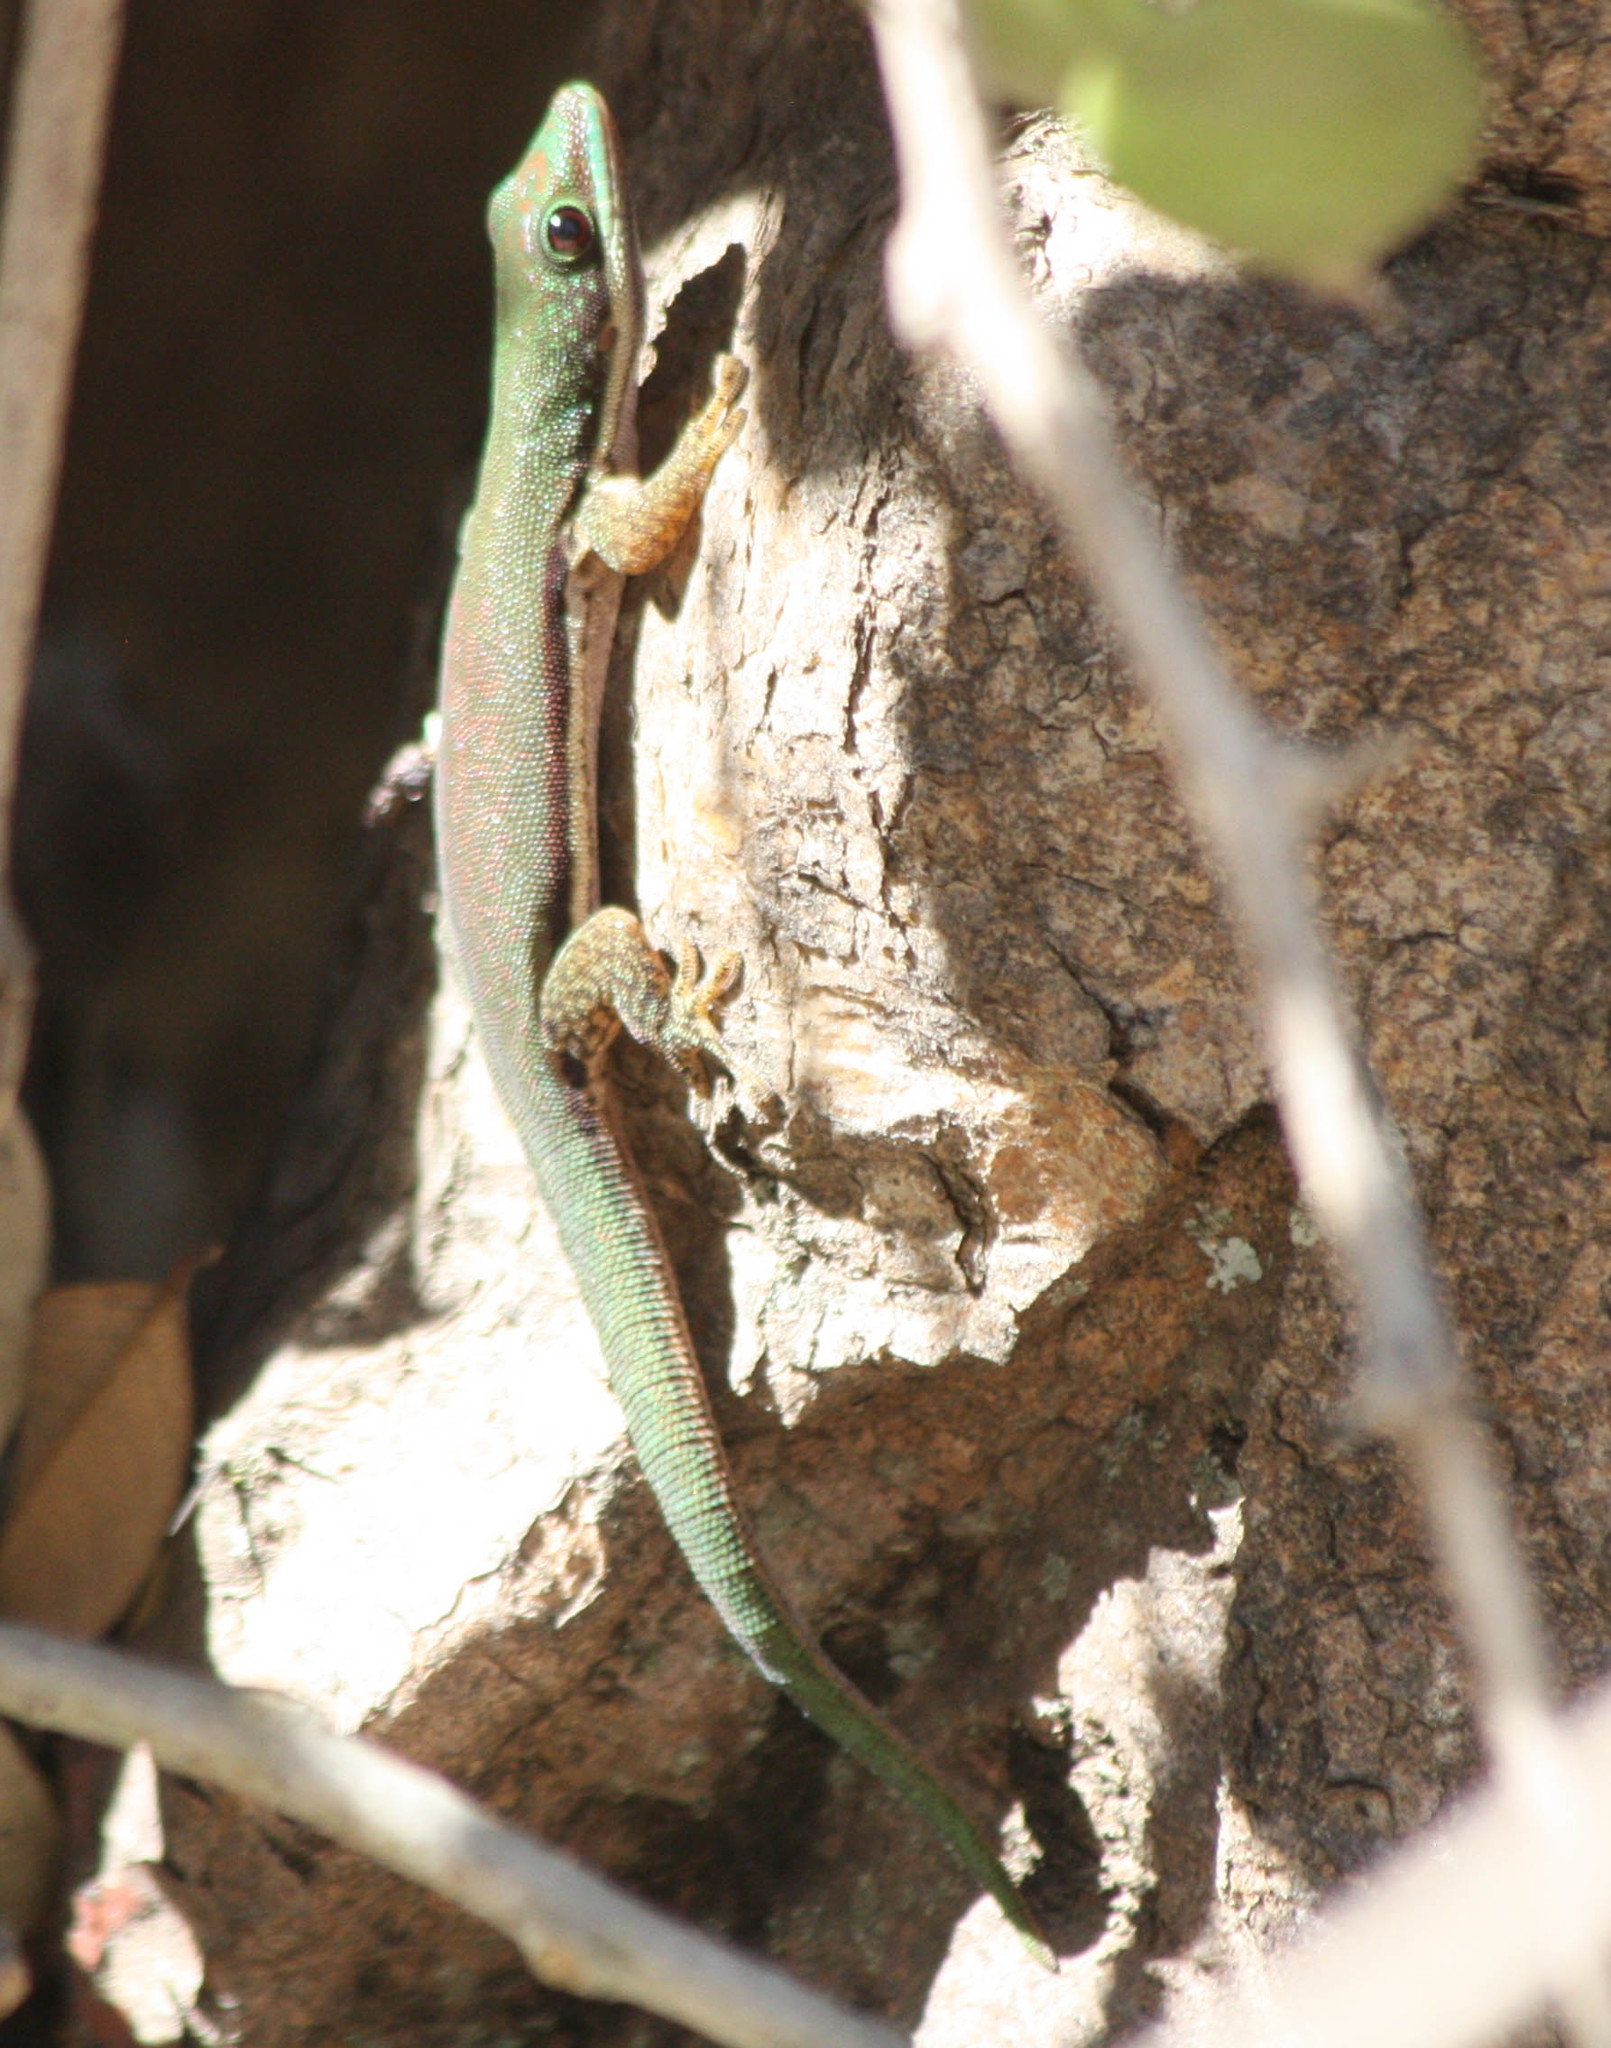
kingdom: Animalia
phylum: Chordata
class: Squamata
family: Gekkonidae
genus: Phelsuma
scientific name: Phelsuma lineata
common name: Lined day gecko
